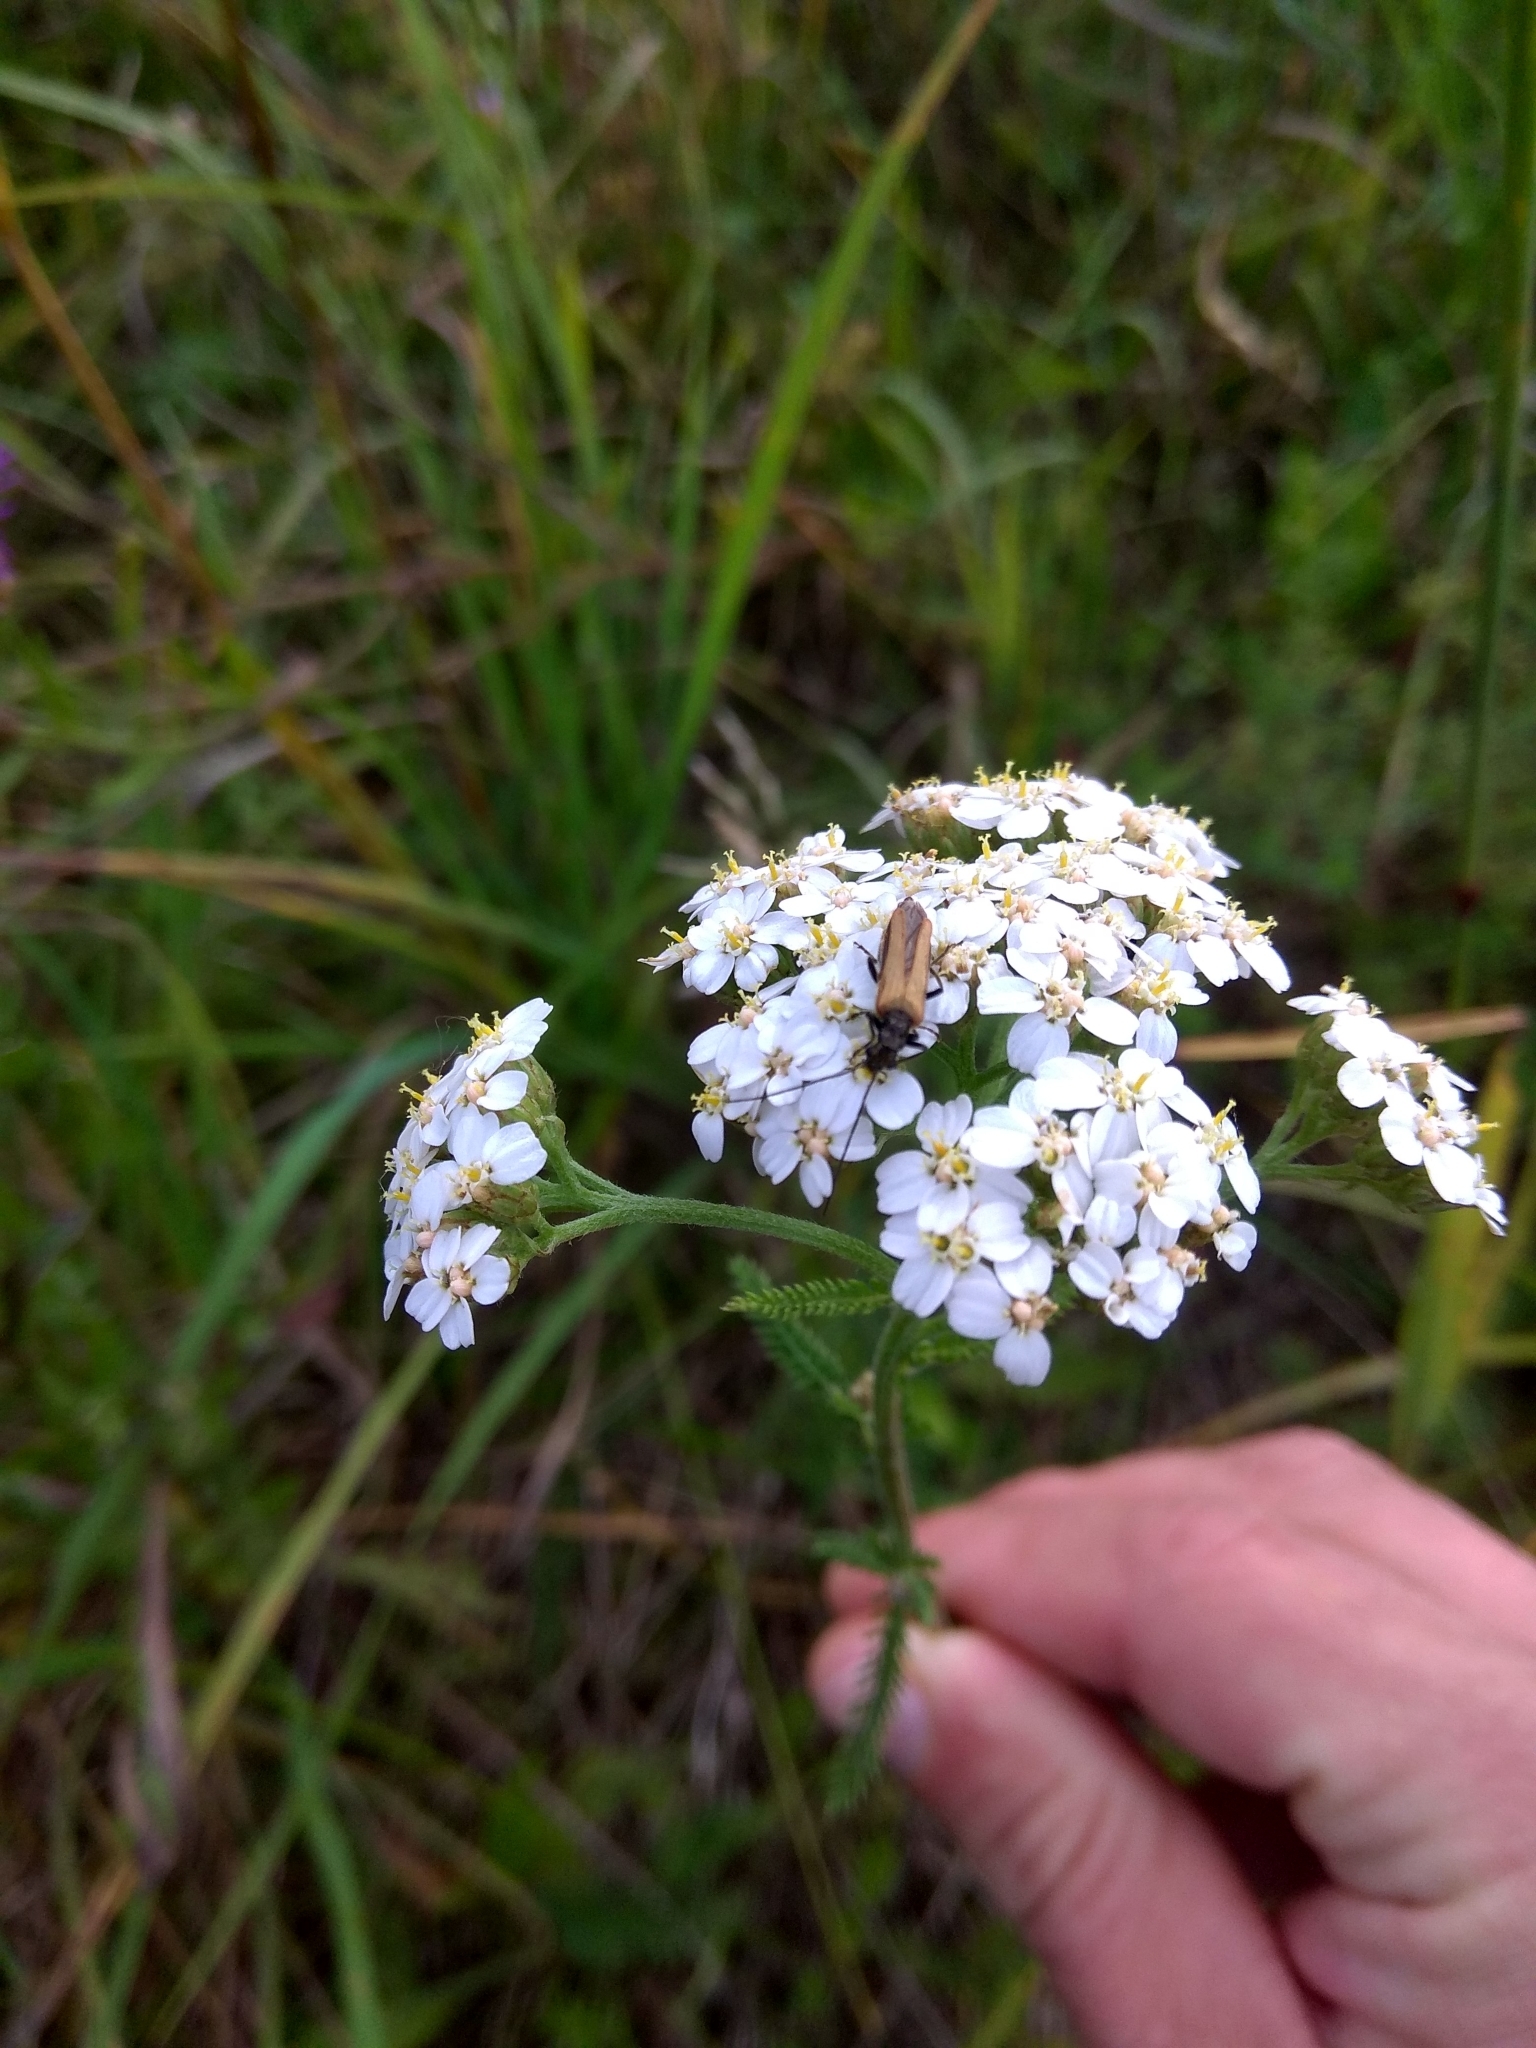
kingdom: Plantae
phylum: Tracheophyta
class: Magnoliopsida
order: Asterales
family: Asteraceae
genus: Achillea
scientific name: Achillea millefolium
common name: Yarrow
